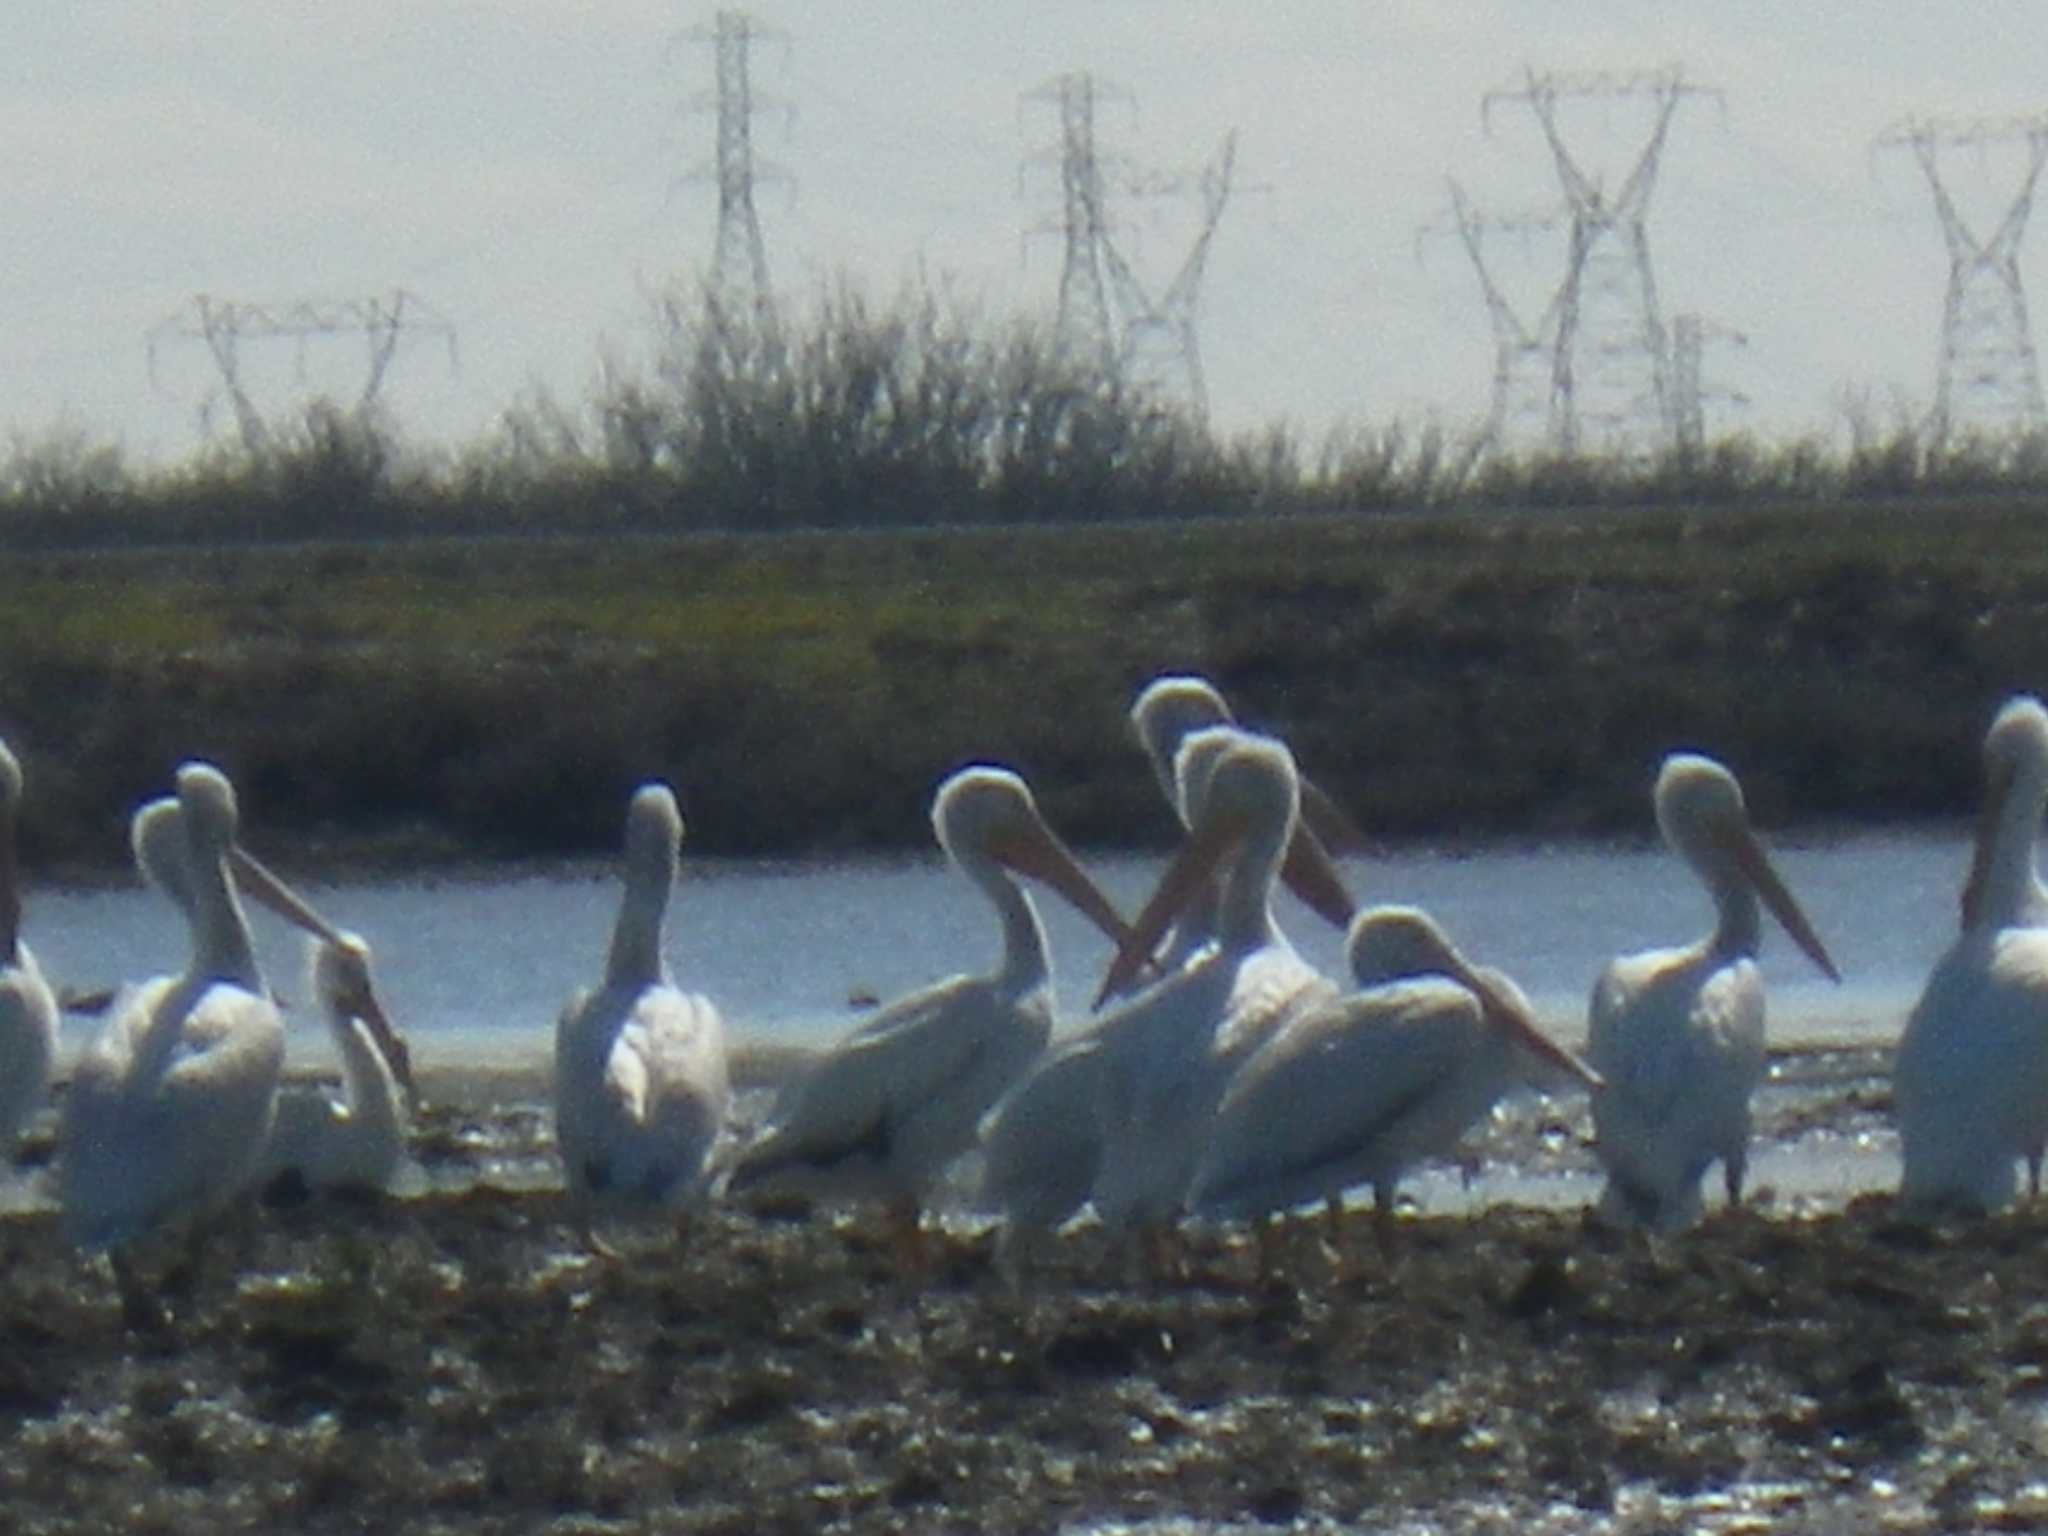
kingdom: Animalia
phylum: Chordata
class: Aves
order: Pelecaniformes
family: Pelecanidae
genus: Pelecanus
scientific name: Pelecanus erythrorhynchos
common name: American white pelican
